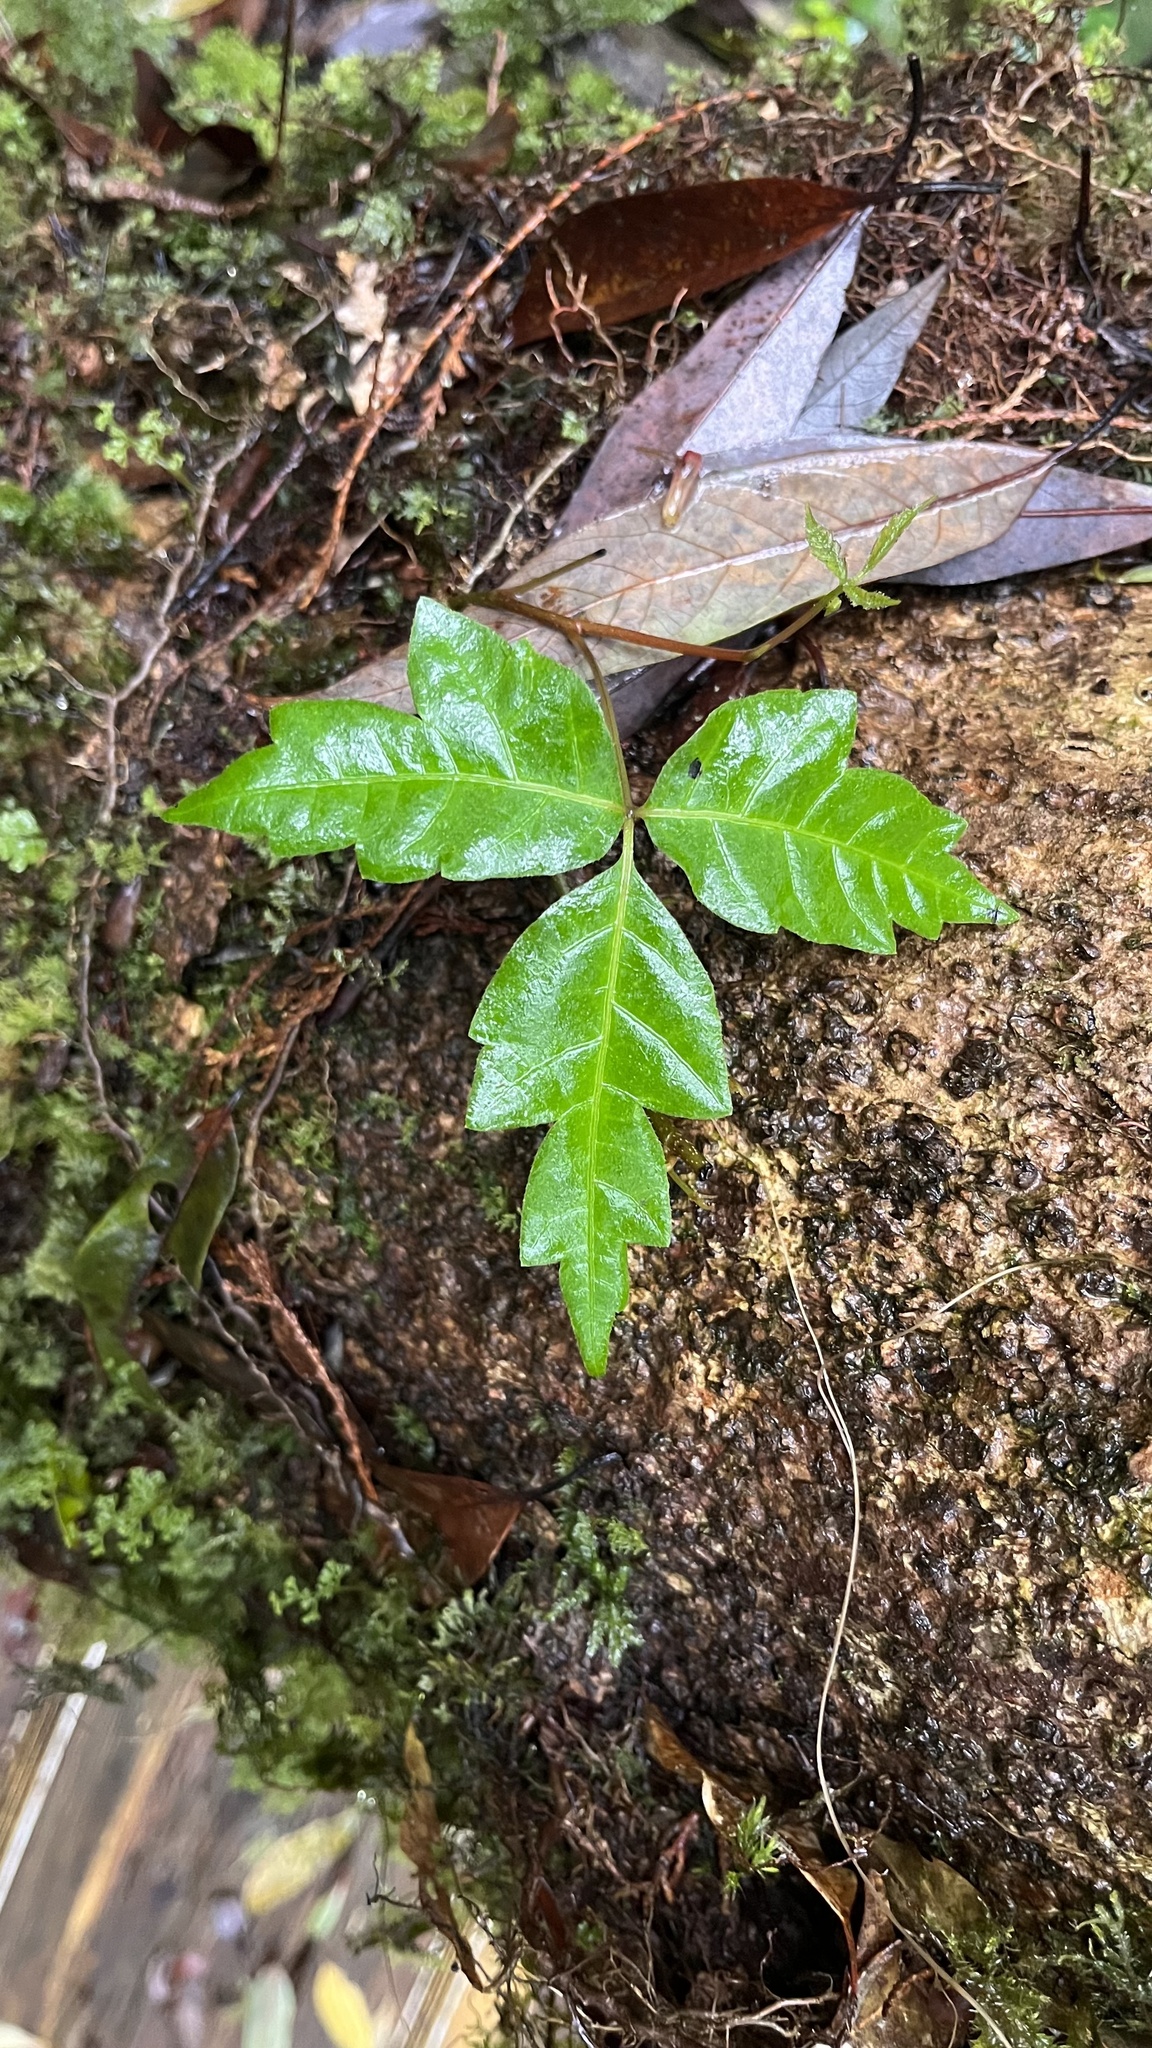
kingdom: Plantae
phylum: Tracheophyta
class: Magnoliopsida
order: Sapindales
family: Anacardiaceae
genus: Toxicodendron
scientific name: Toxicodendron orientale
